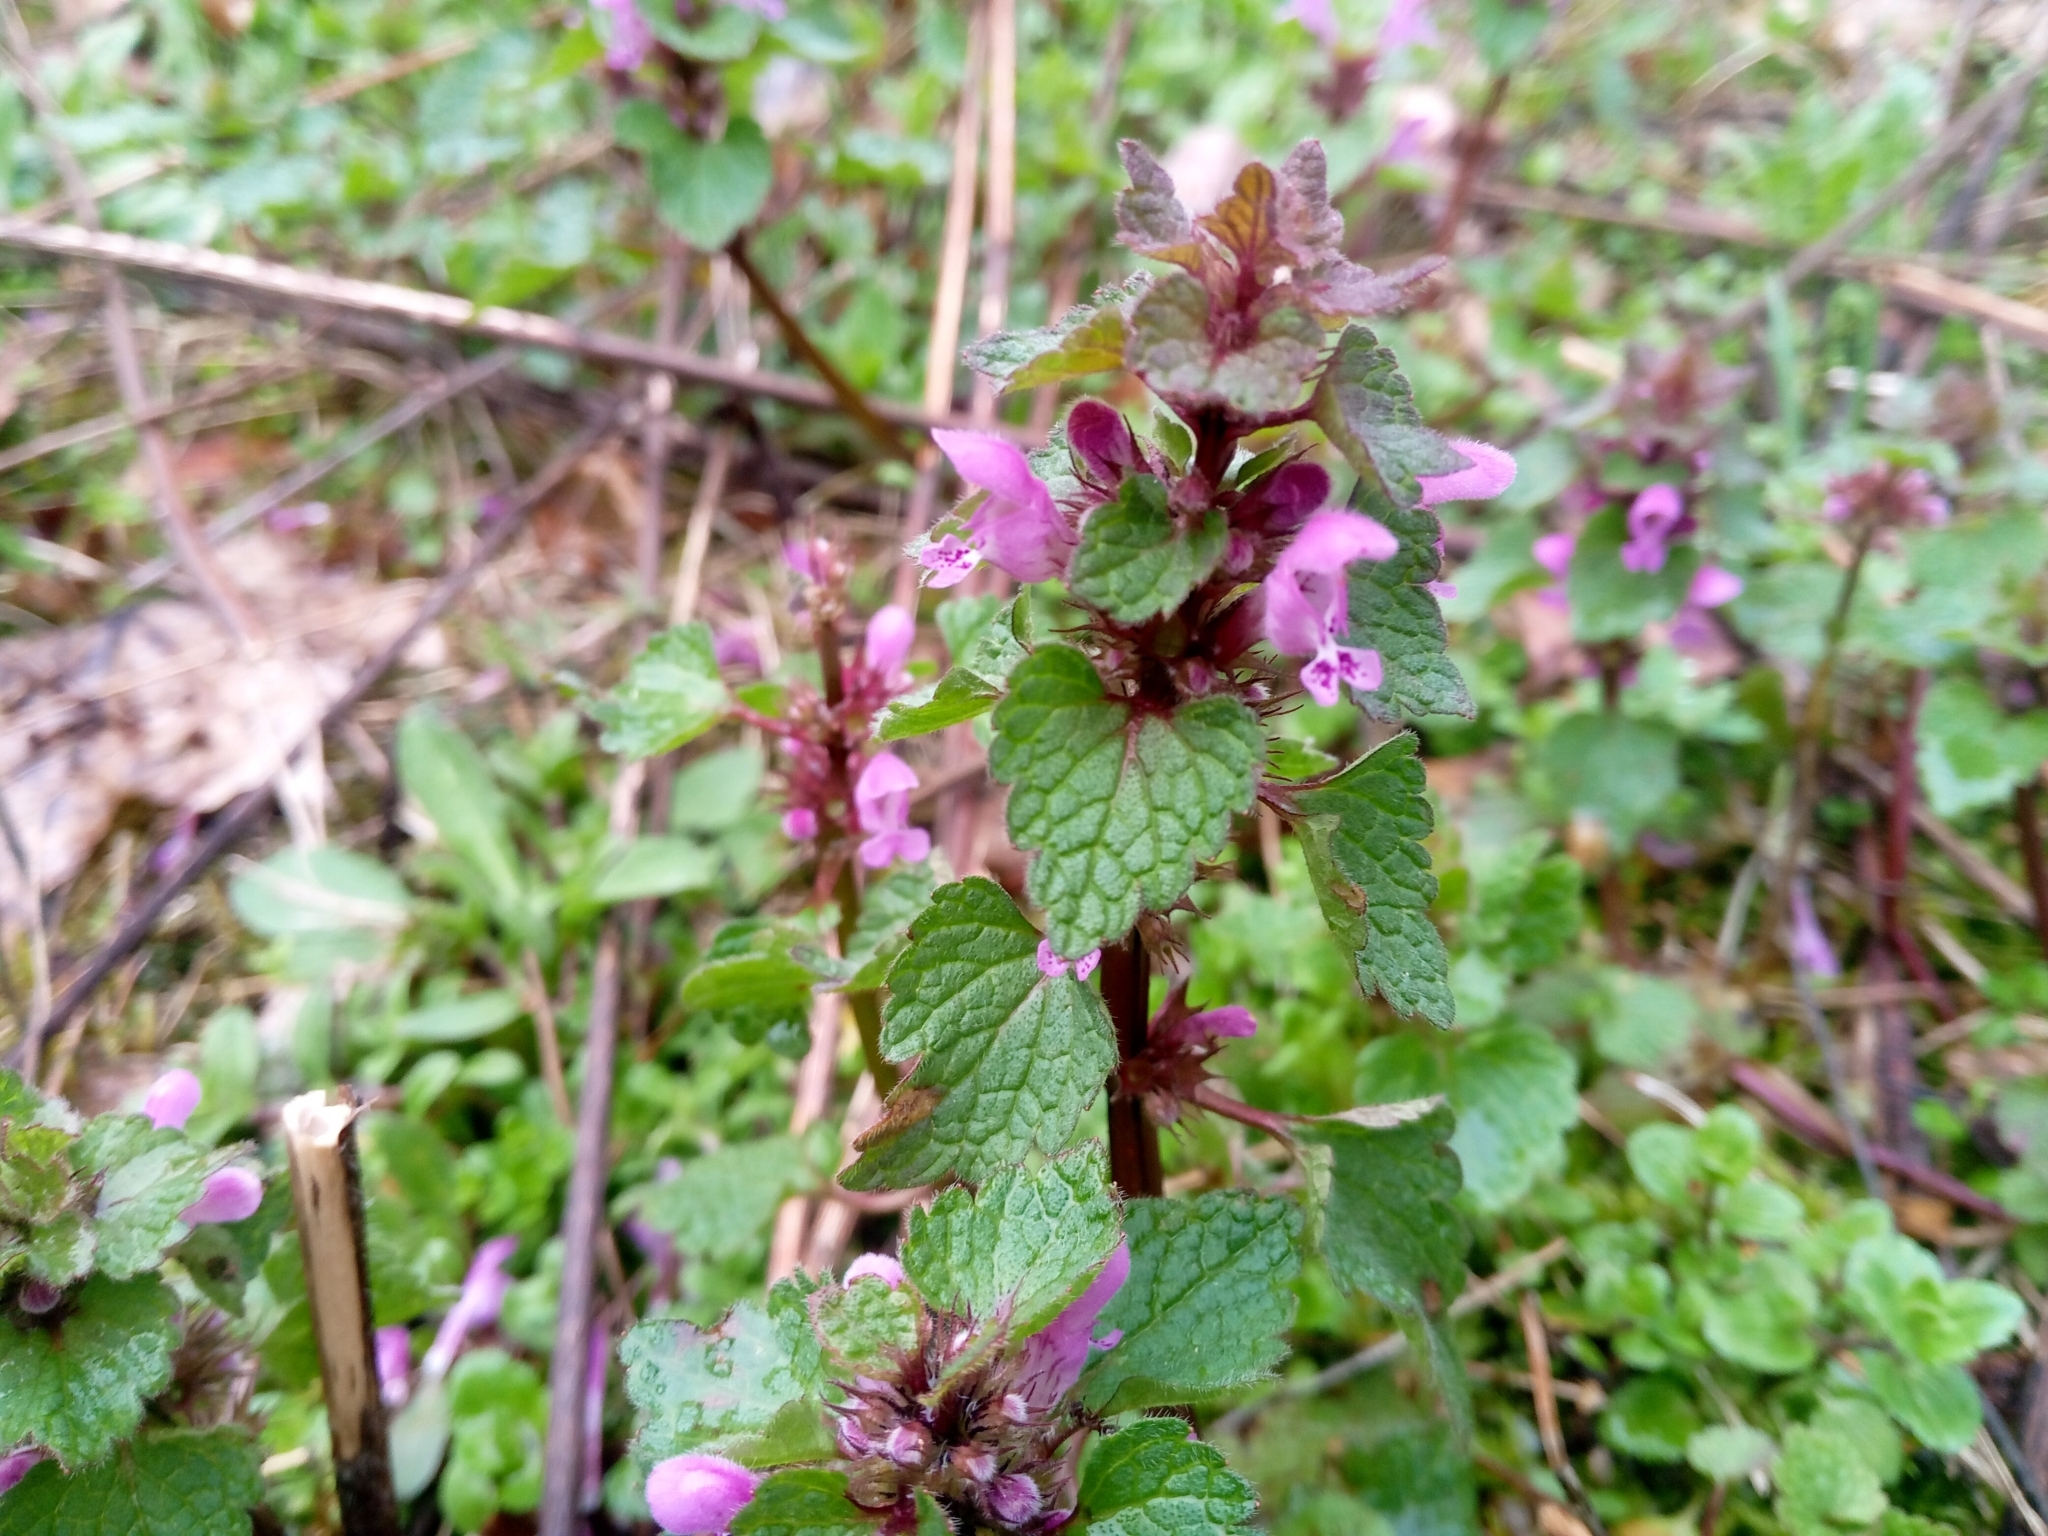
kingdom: Plantae
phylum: Tracheophyta
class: Magnoliopsida
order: Lamiales
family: Lamiaceae
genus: Lamium
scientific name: Lamium purpureum
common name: Red dead-nettle
